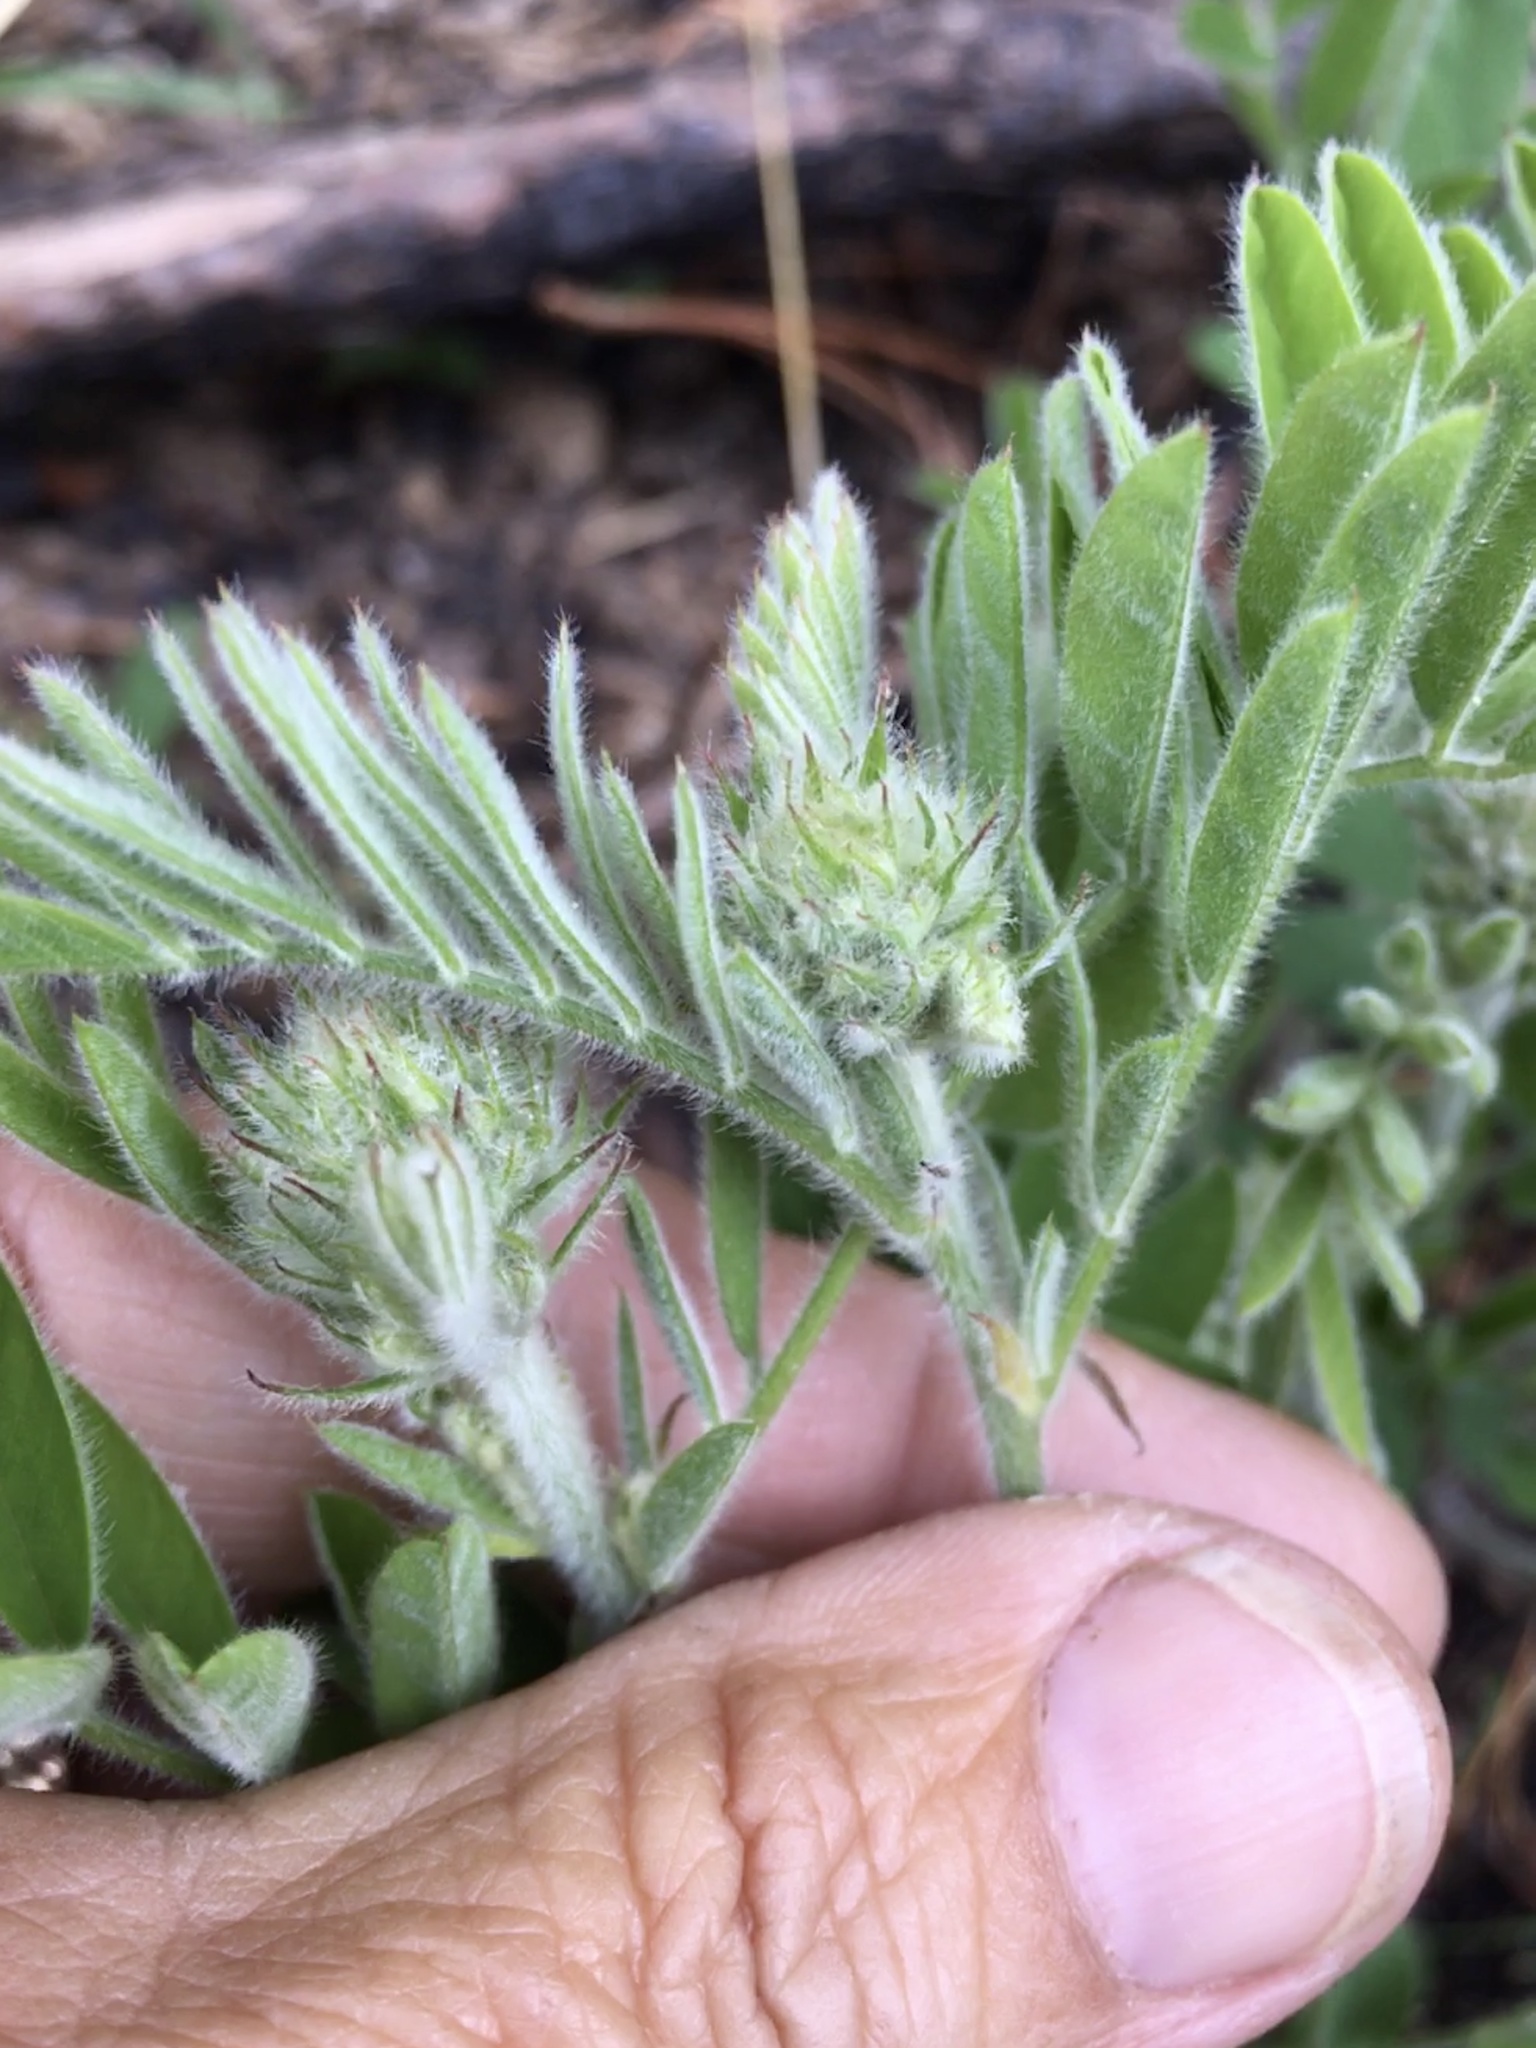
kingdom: Plantae
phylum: Tracheophyta
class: Magnoliopsida
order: Fabales
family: Fabaceae
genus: Tephrosia
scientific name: Tephrosia virginiana
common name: Rabbit-pea
